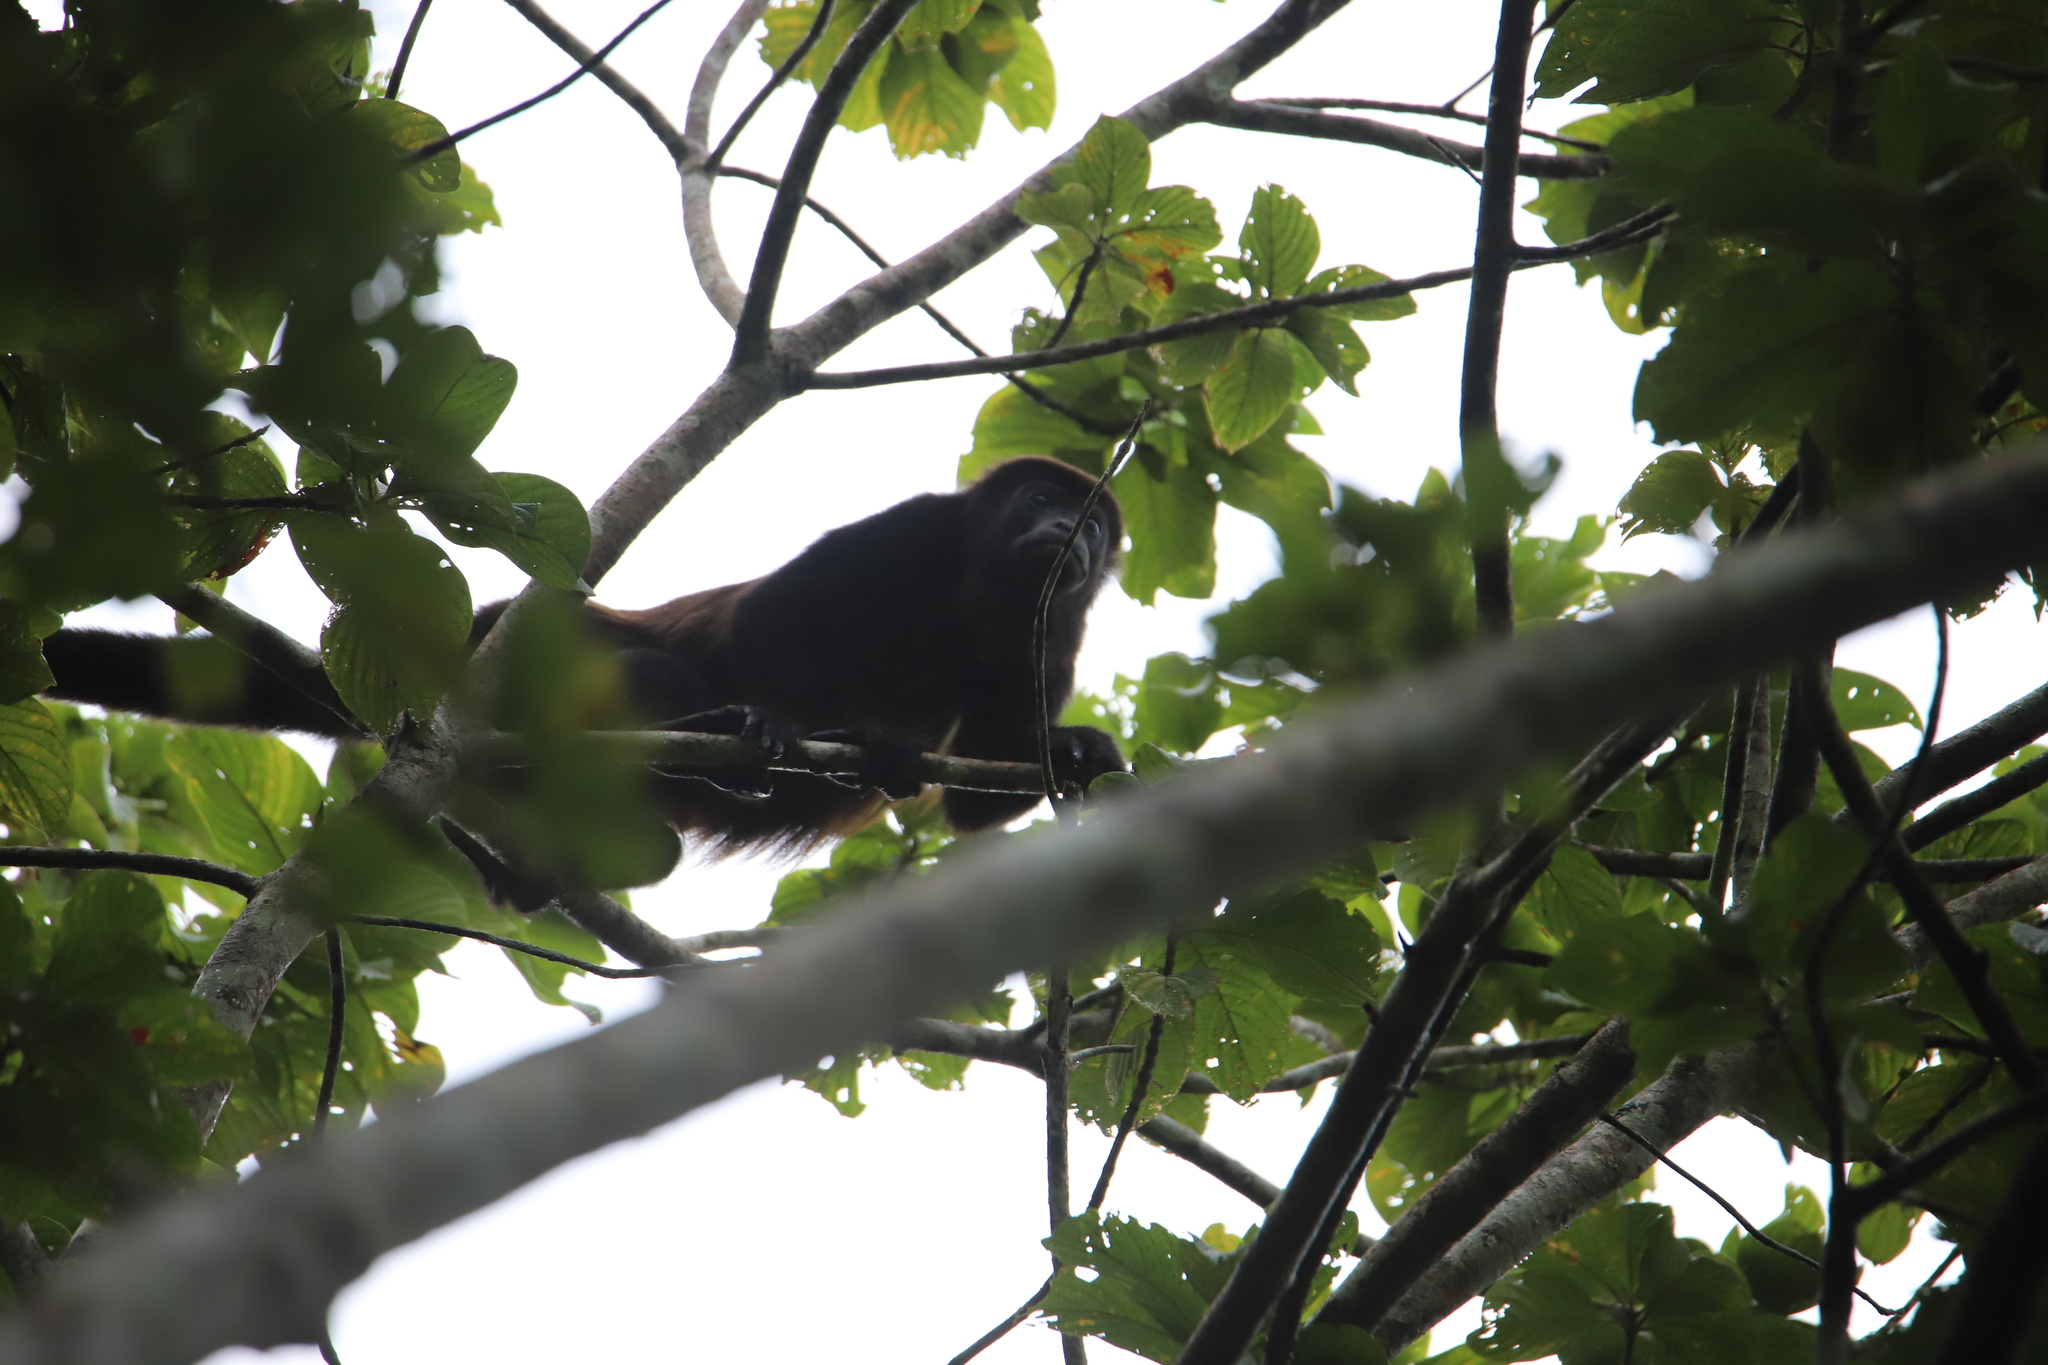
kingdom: Animalia
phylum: Chordata
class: Mammalia
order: Primates
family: Atelidae
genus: Alouatta
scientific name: Alouatta palliata
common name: Mantled howler
